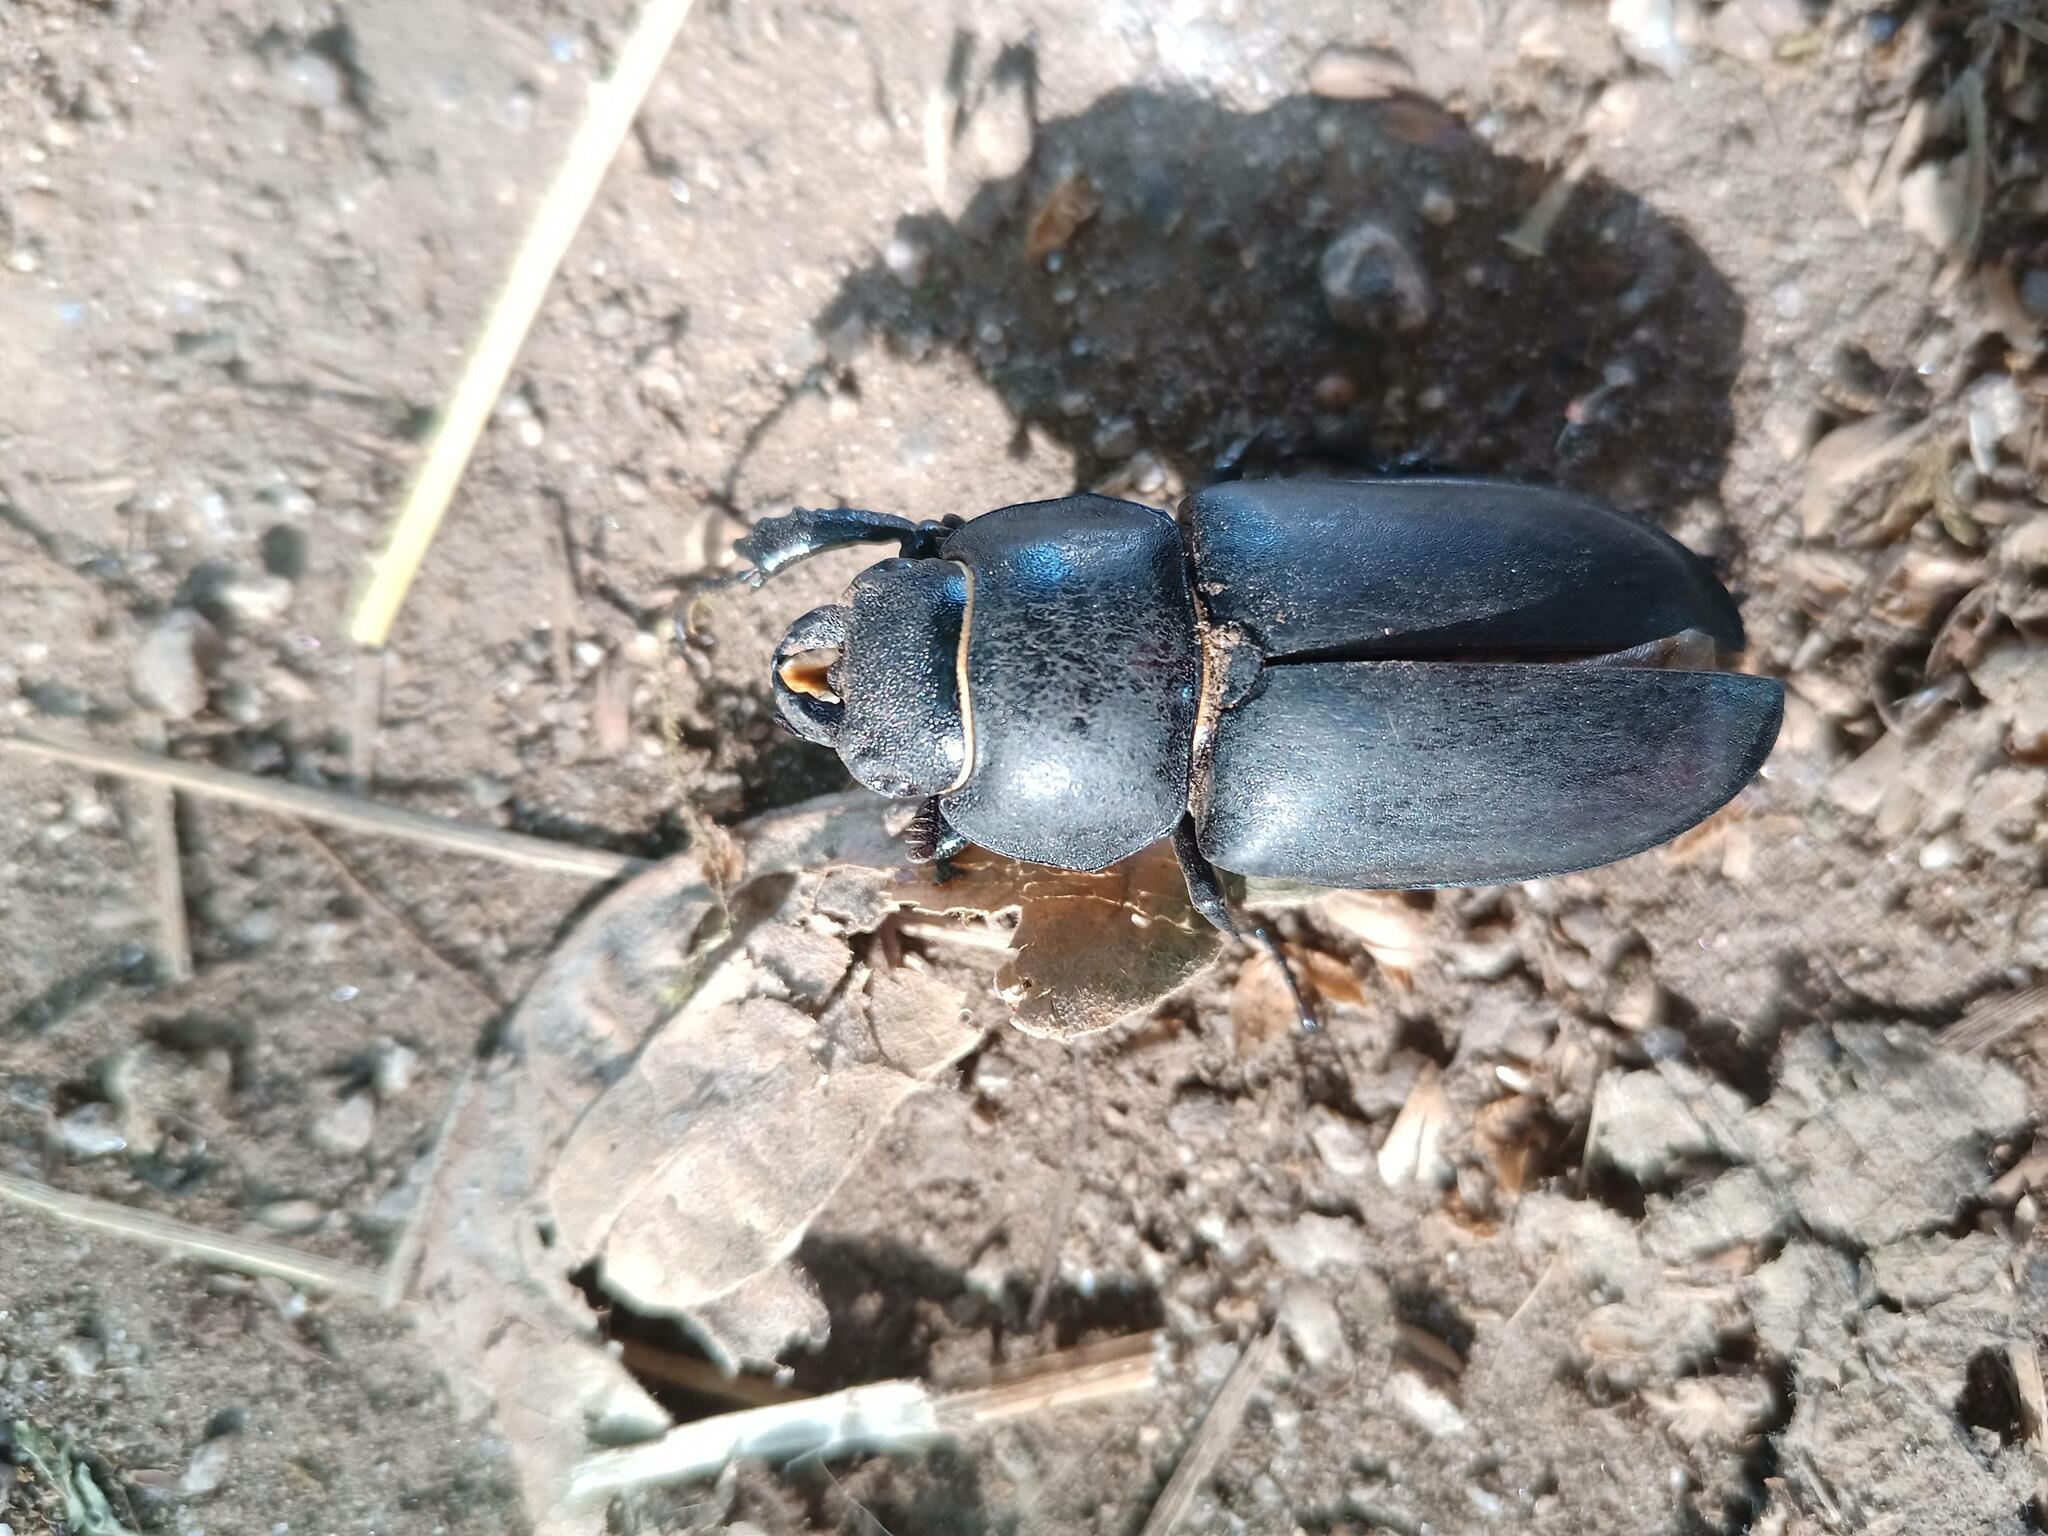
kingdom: Animalia
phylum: Arthropoda
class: Insecta
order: Coleoptera
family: Lucanidae
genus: Lucanus
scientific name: Lucanus cervus
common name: Stag beetle
